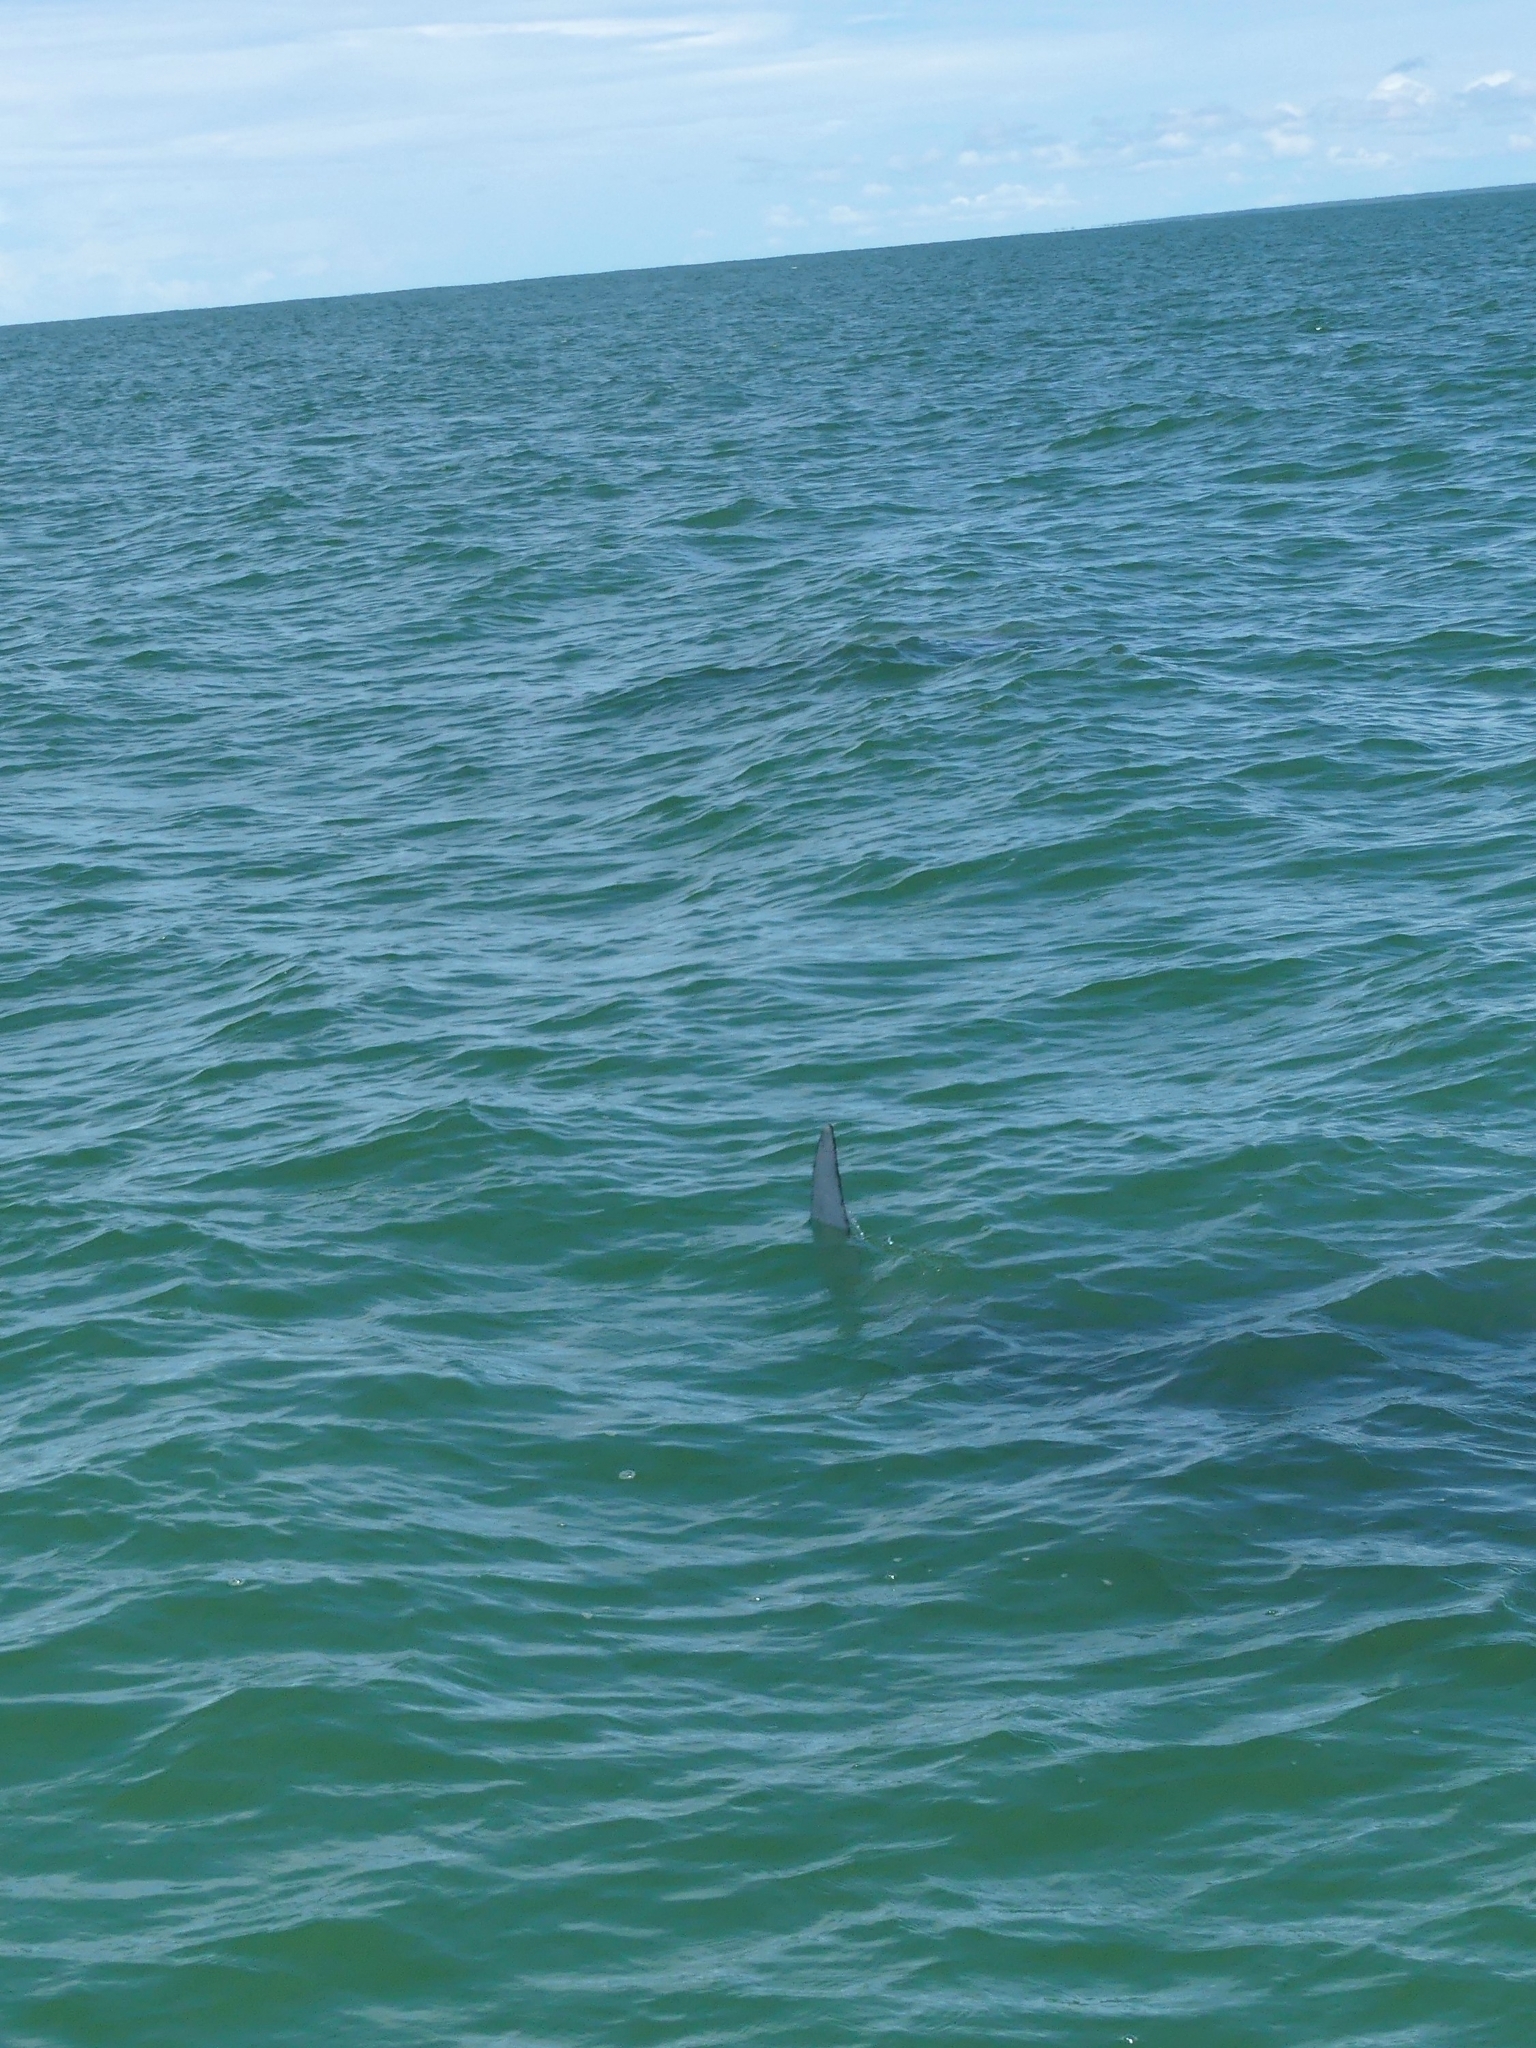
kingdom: Animalia
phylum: Chordata
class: Elasmobranchii
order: Myliobatiformes
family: Myliobatidae
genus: Mobula
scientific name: Mobula birostris
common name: Manta ray
